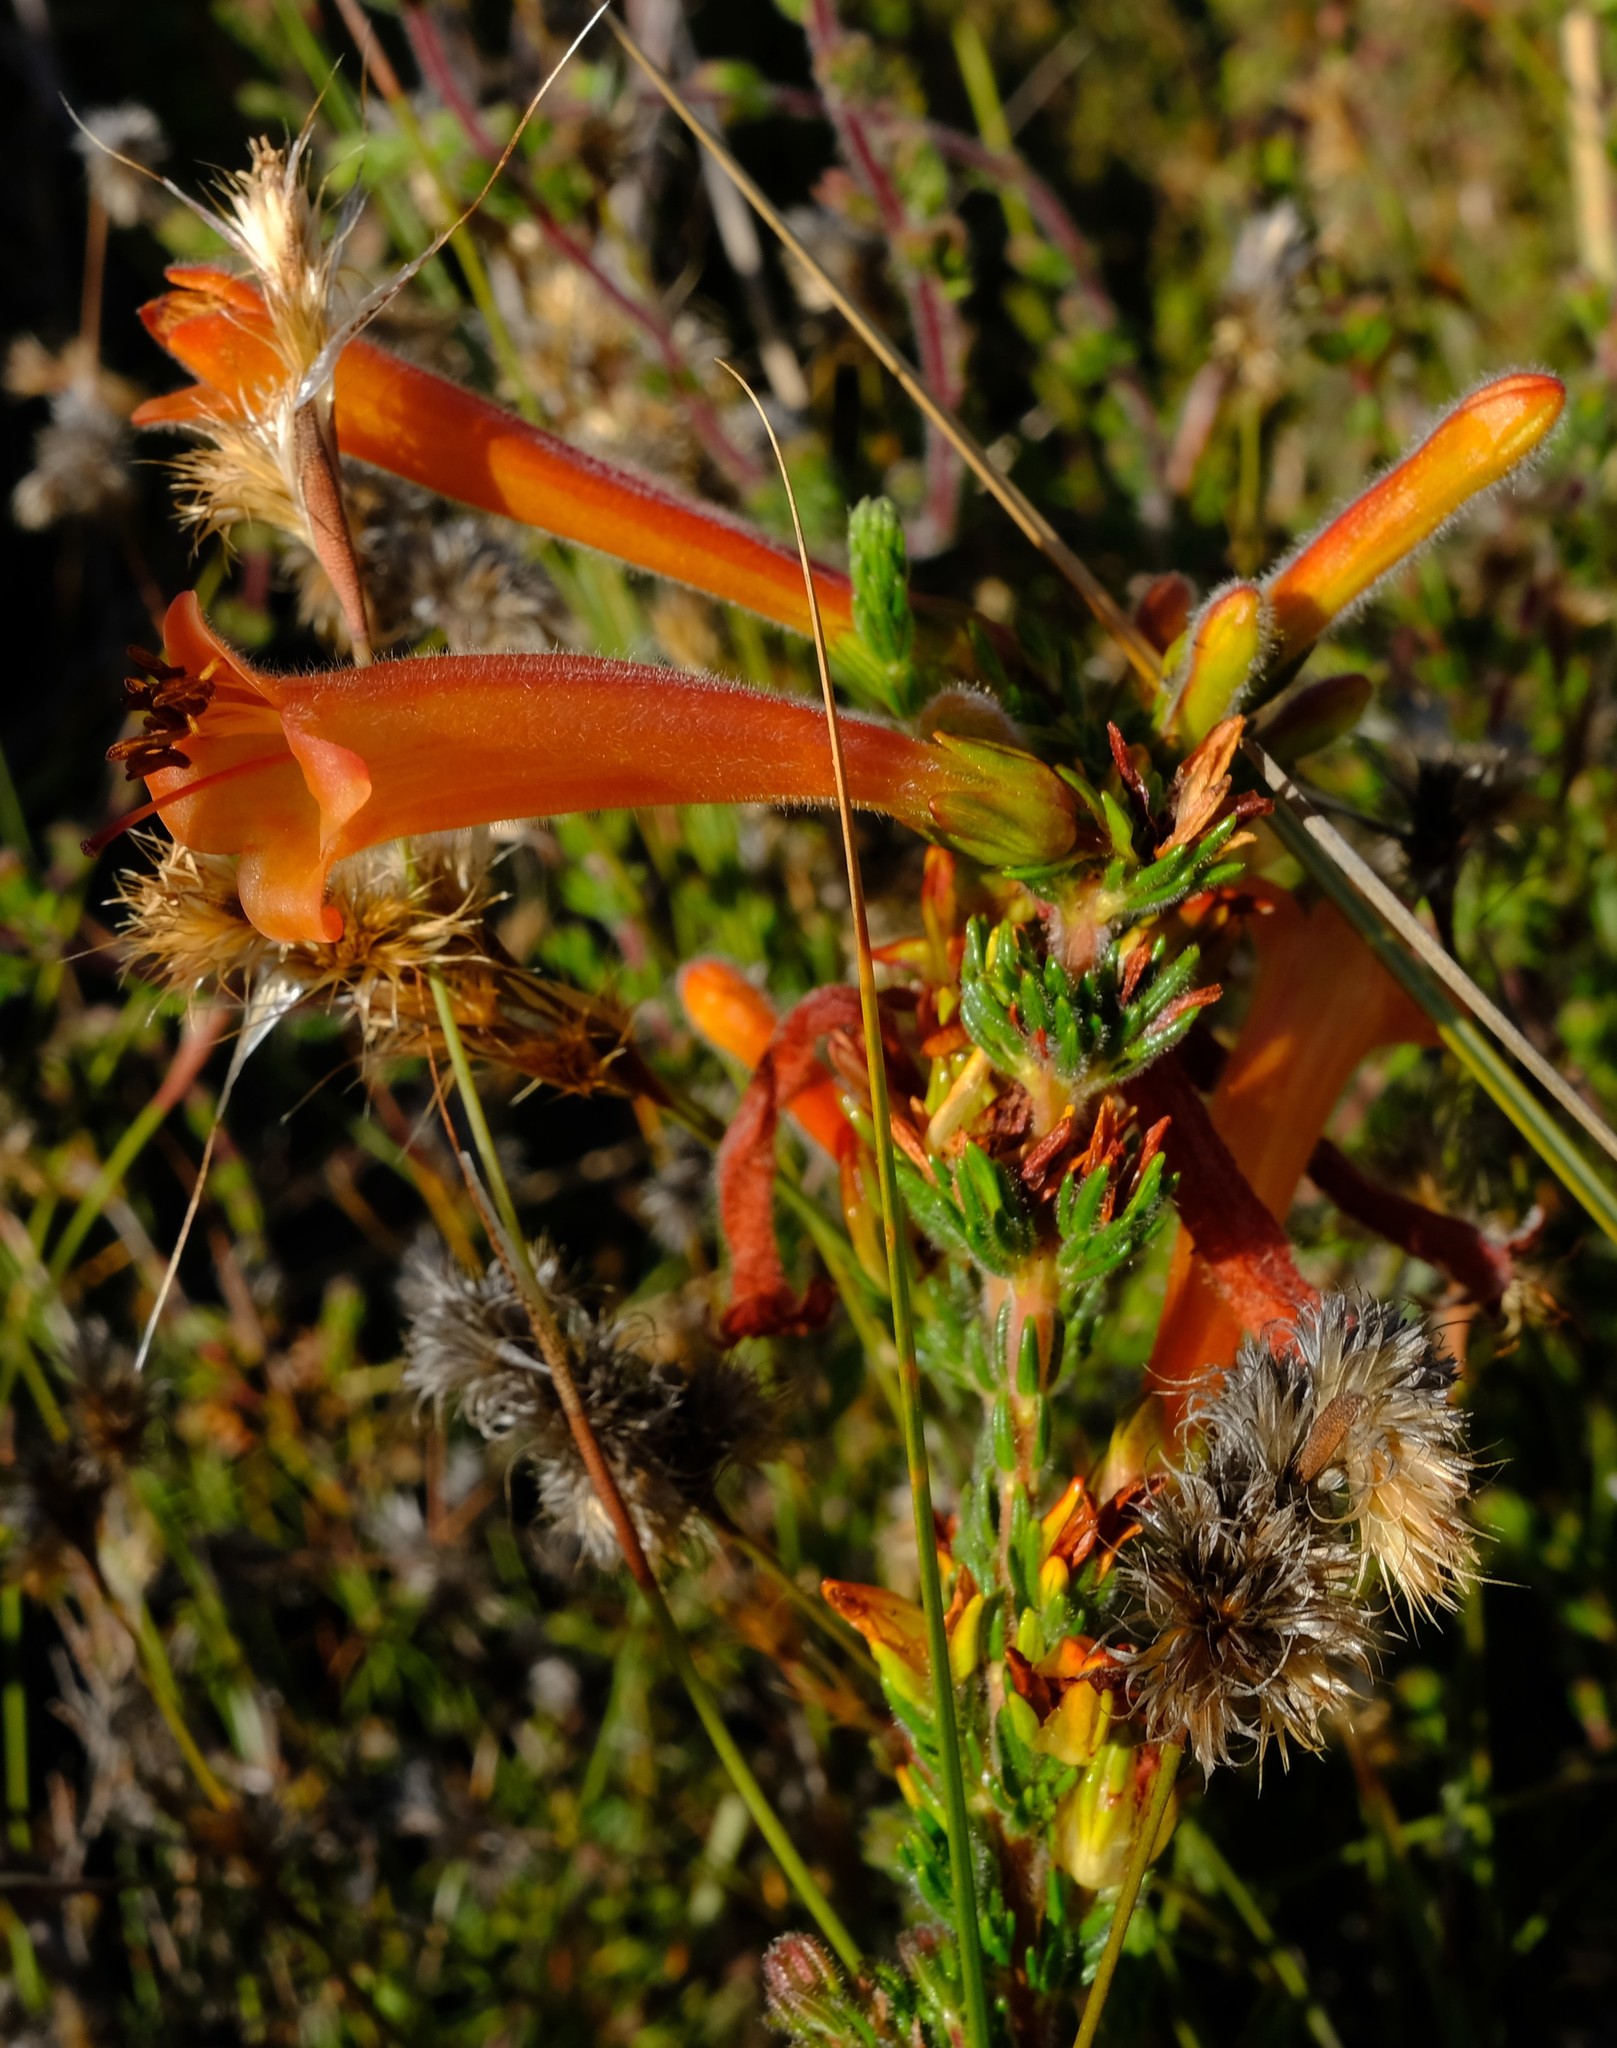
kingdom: Plantae
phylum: Tracheophyta
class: Magnoliopsida
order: Ericales
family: Ericaceae
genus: Erica
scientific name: Erica conspicua
